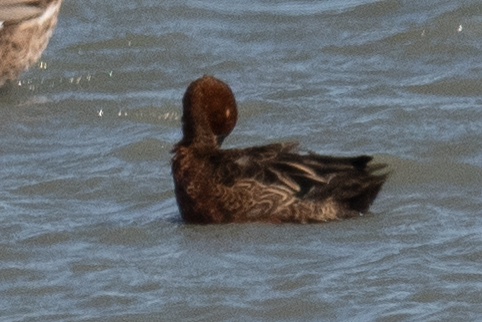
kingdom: Animalia
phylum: Chordata
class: Aves
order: Anseriformes
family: Anatidae
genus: Spatula
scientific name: Spatula cyanoptera
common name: Cinnamon teal
